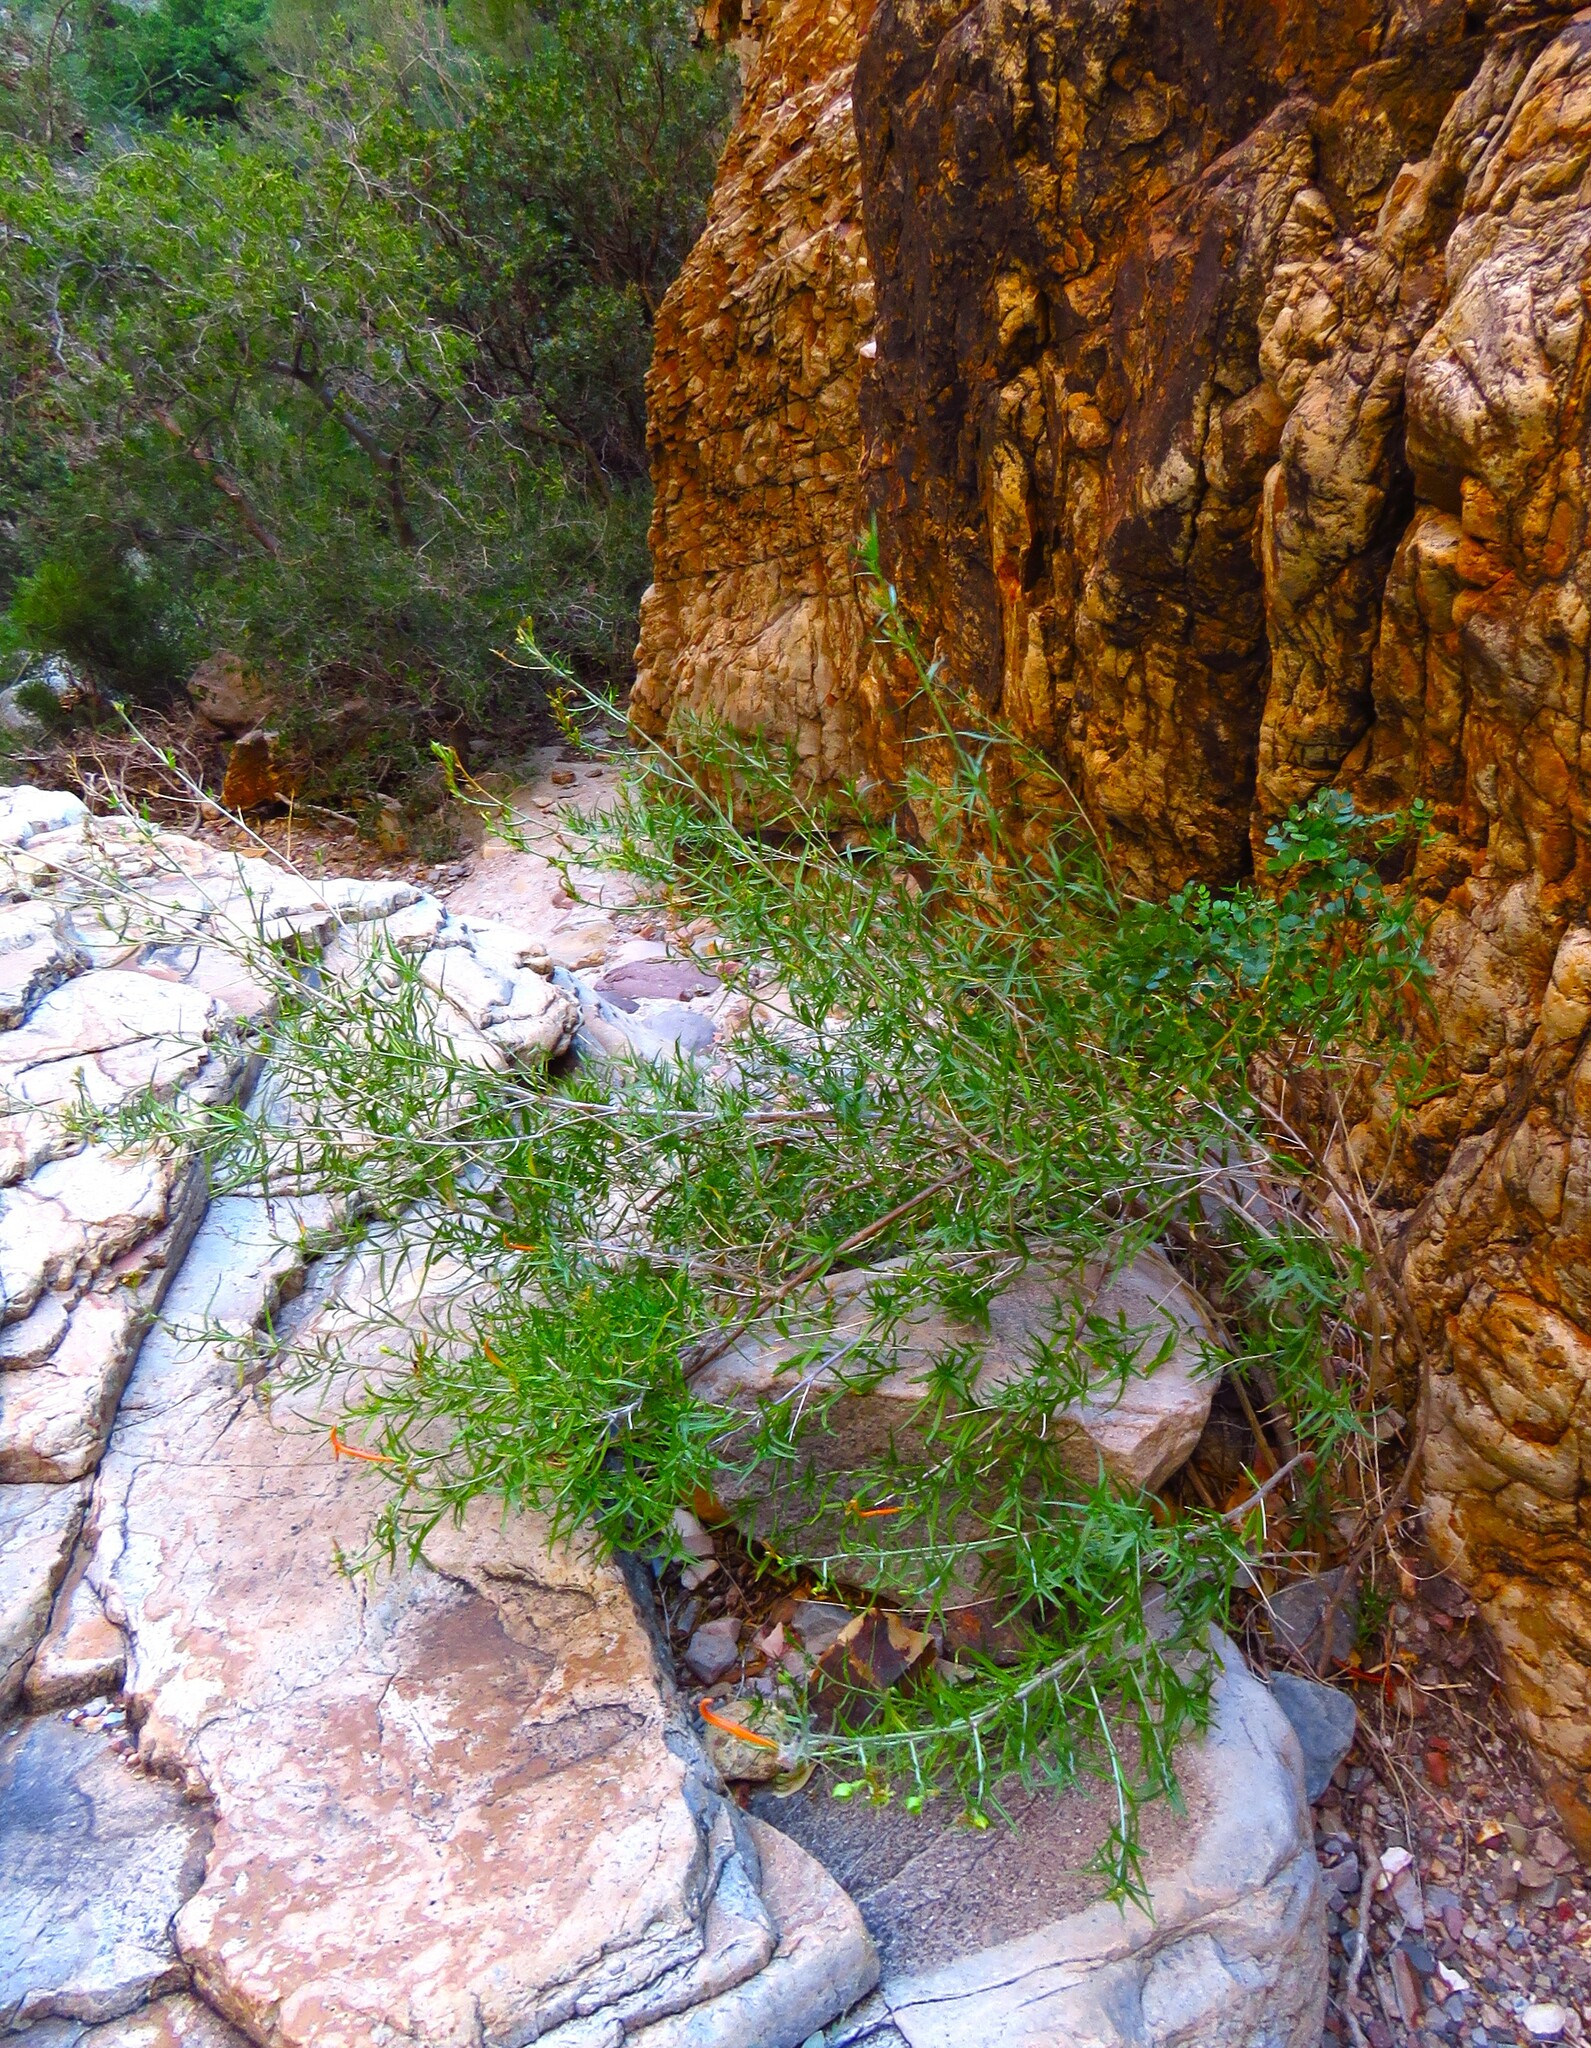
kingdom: Plantae
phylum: Tracheophyta
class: Magnoliopsida
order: Lamiales
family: Acanthaceae
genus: Anisacanthus
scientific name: Anisacanthus linearis
